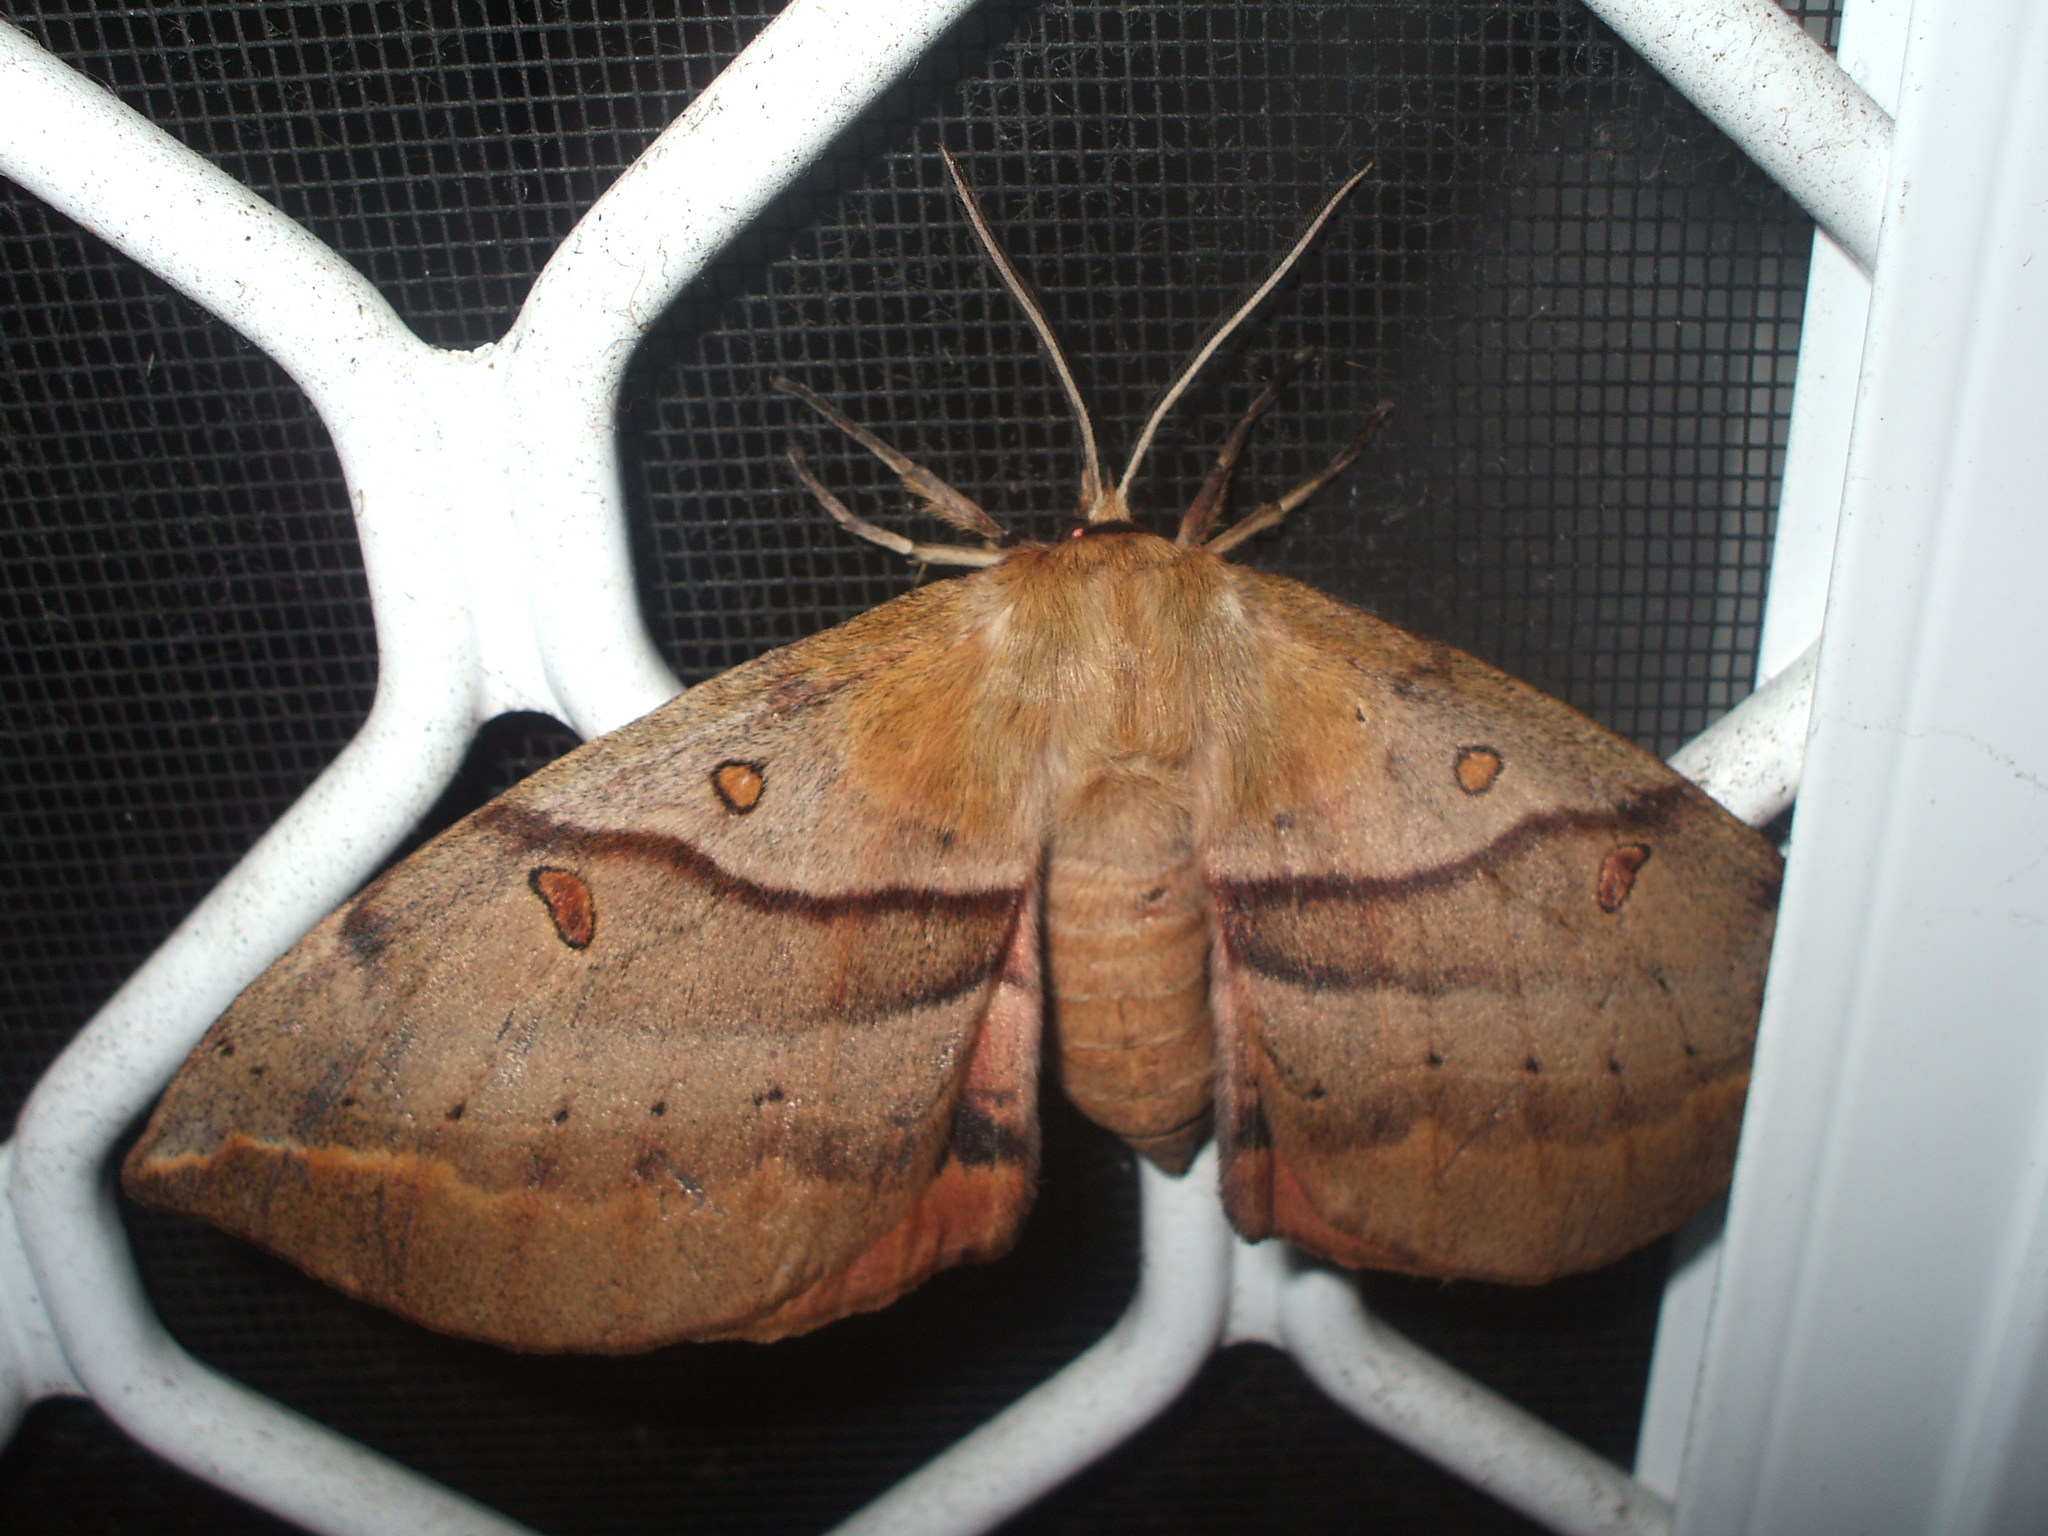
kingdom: Animalia
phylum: Arthropoda
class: Insecta
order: Lepidoptera
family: Anthelidae
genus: Chelepteryx
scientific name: Chelepteryx chalepteryx
